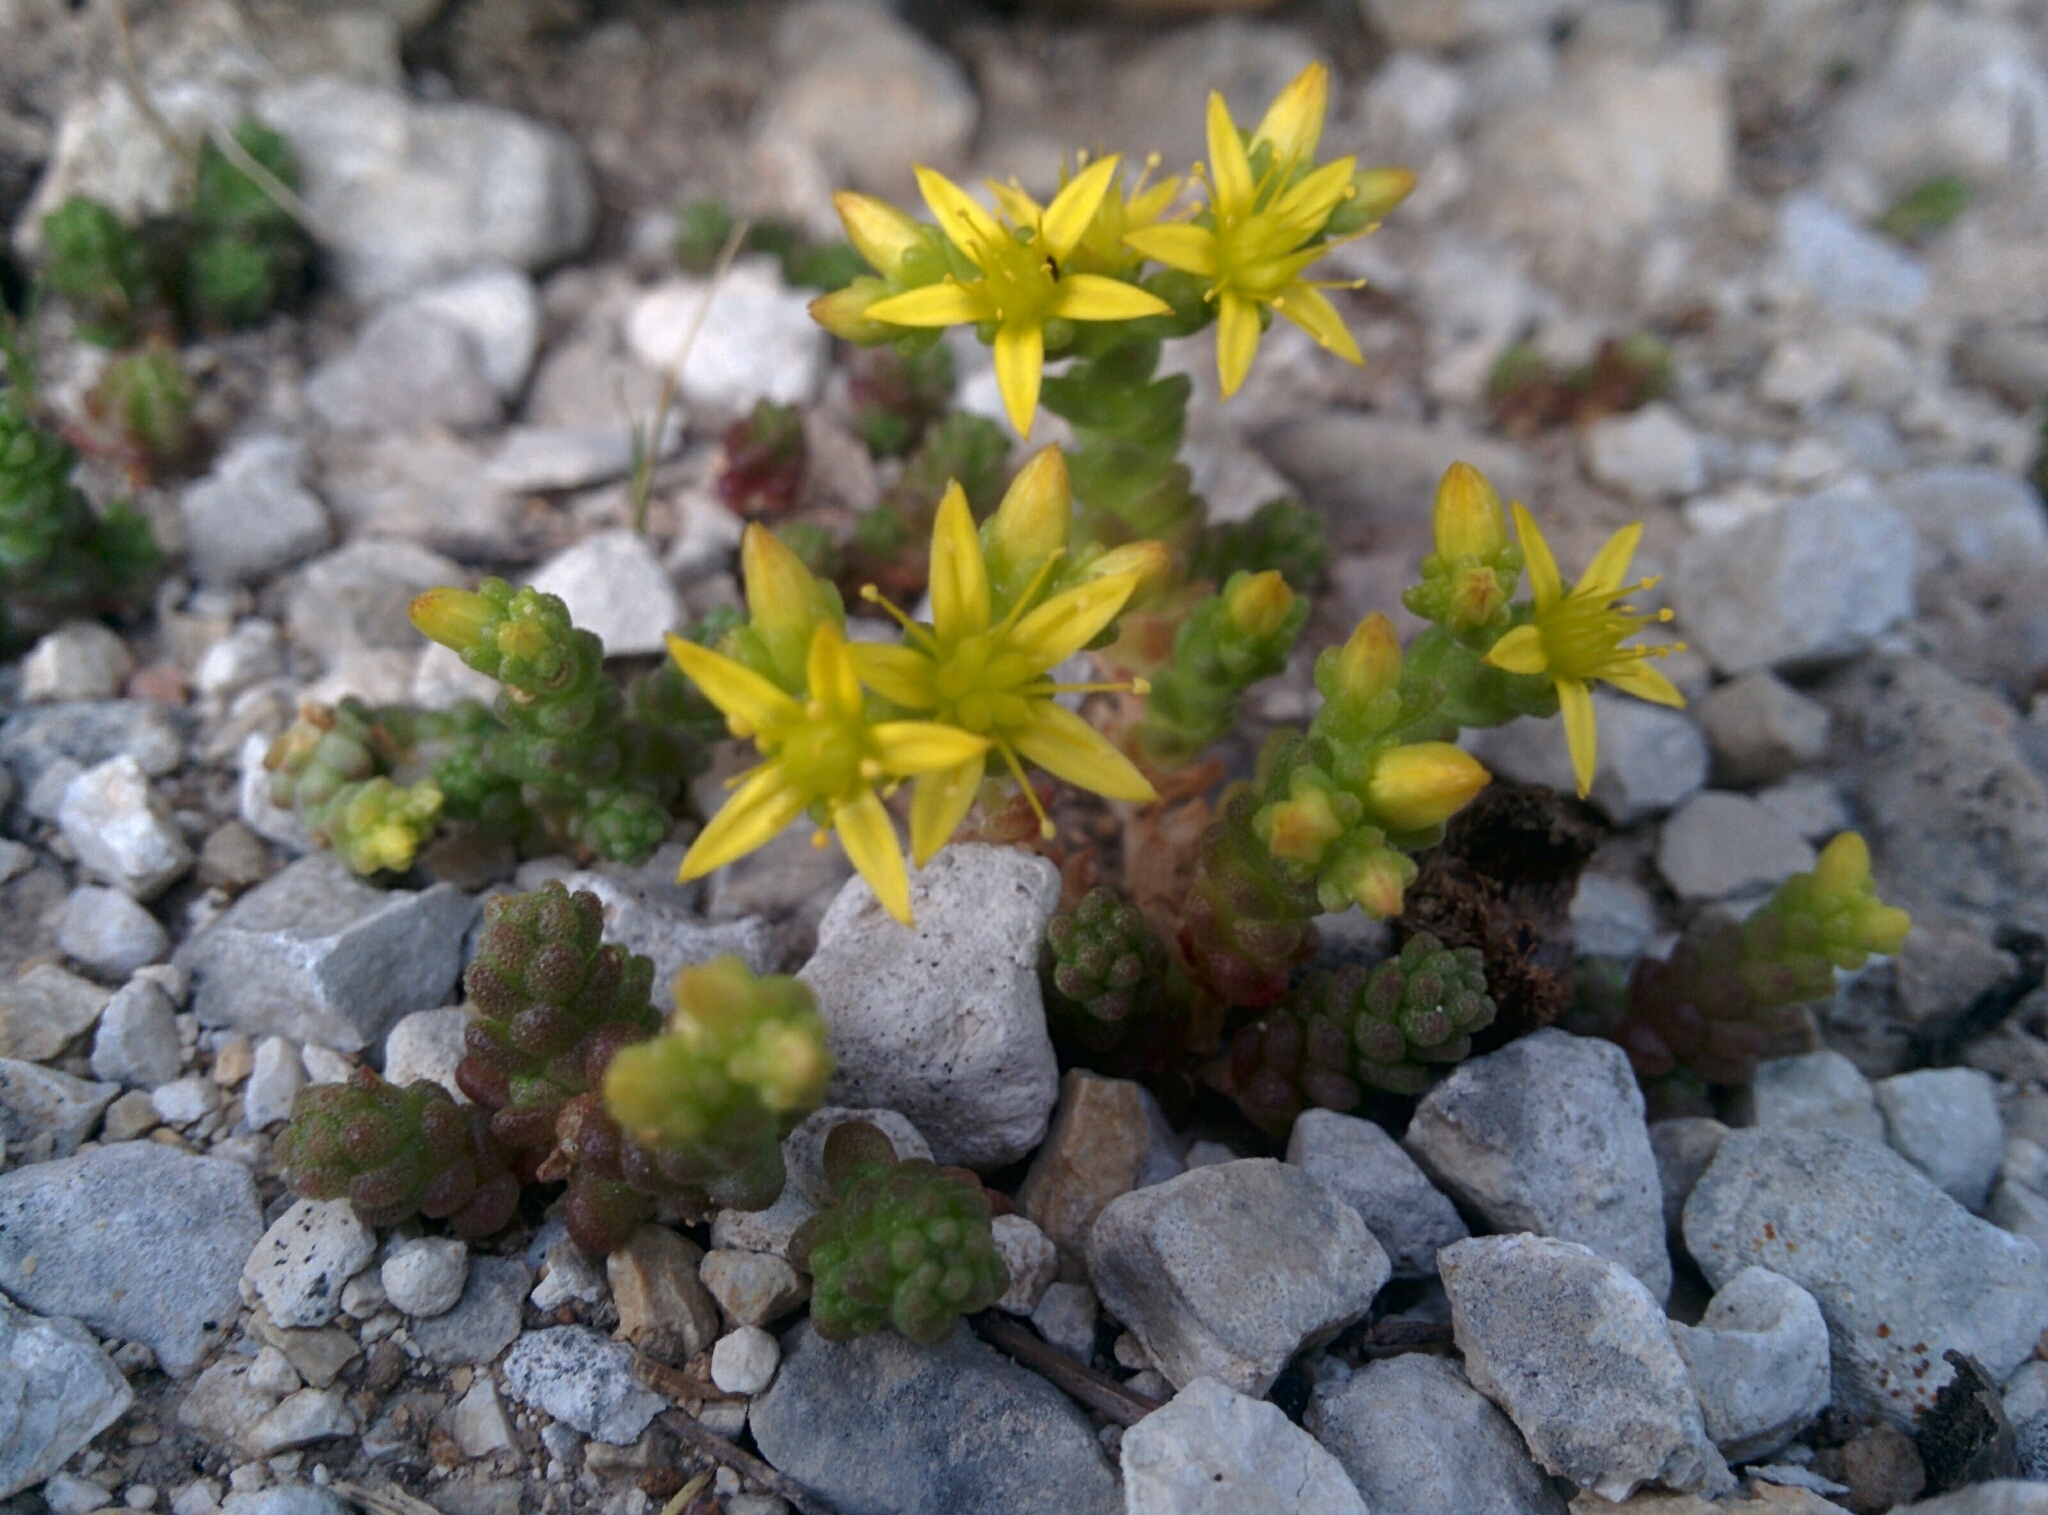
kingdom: Plantae
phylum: Tracheophyta
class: Magnoliopsida
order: Saxifragales
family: Crassulaceae
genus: Sedum
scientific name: Sedum acre
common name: Biting stonecrop
